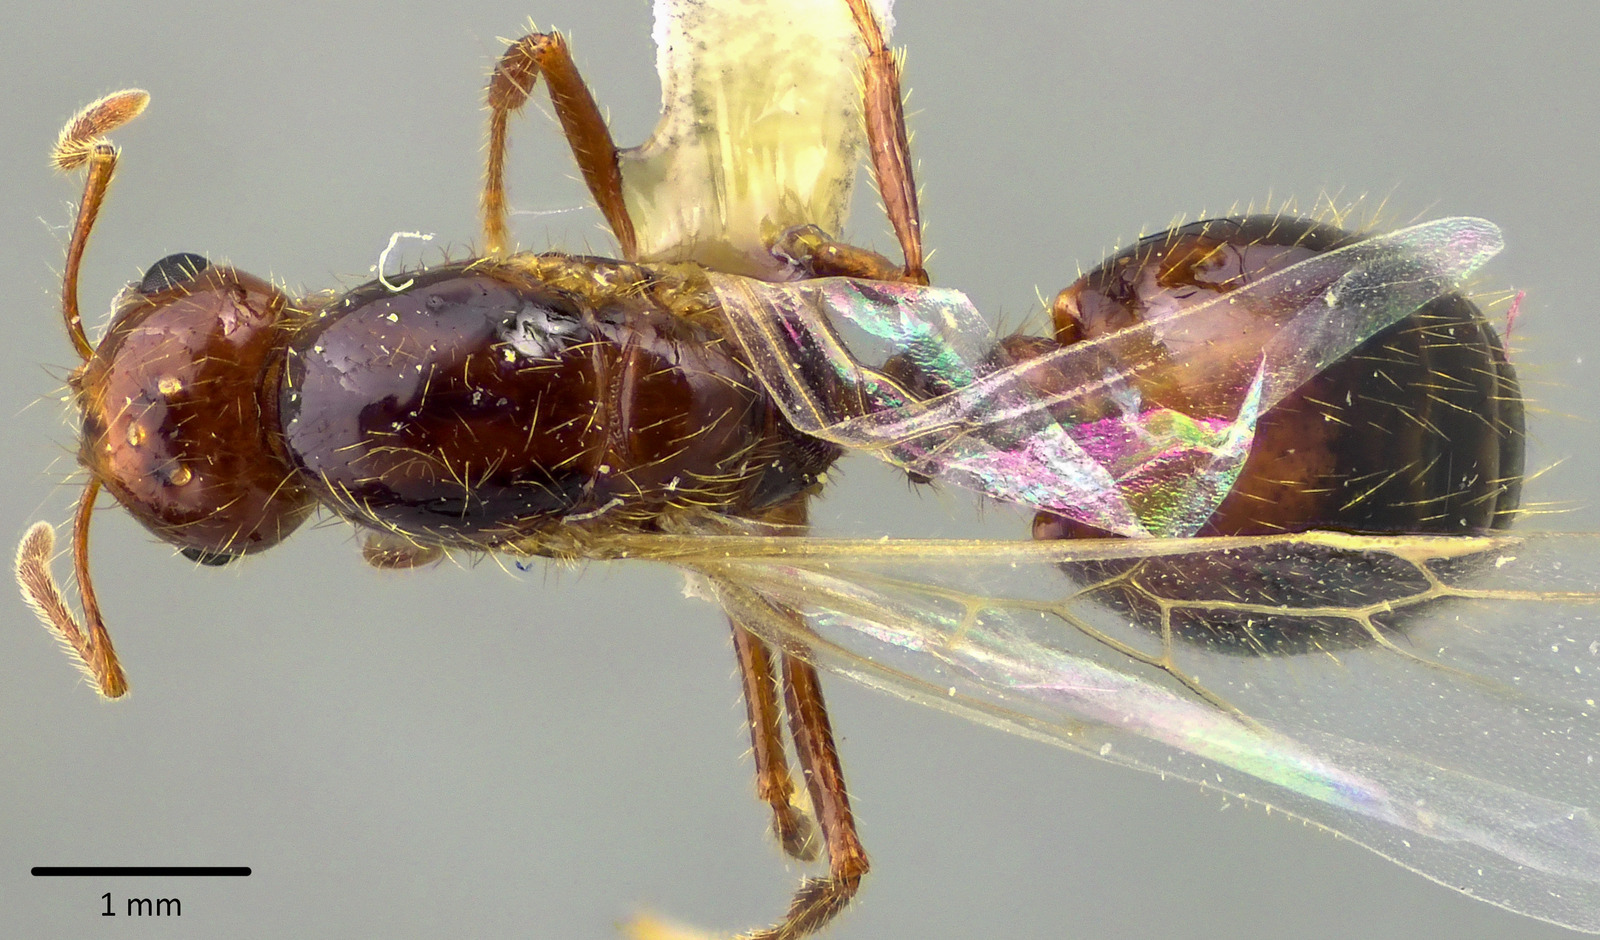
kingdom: Animalia
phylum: Arthropoda
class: Insecta
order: Hymenoptera
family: Formicidae
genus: Solenopsis
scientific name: Solenopsis invicta
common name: Red imported fire ant
